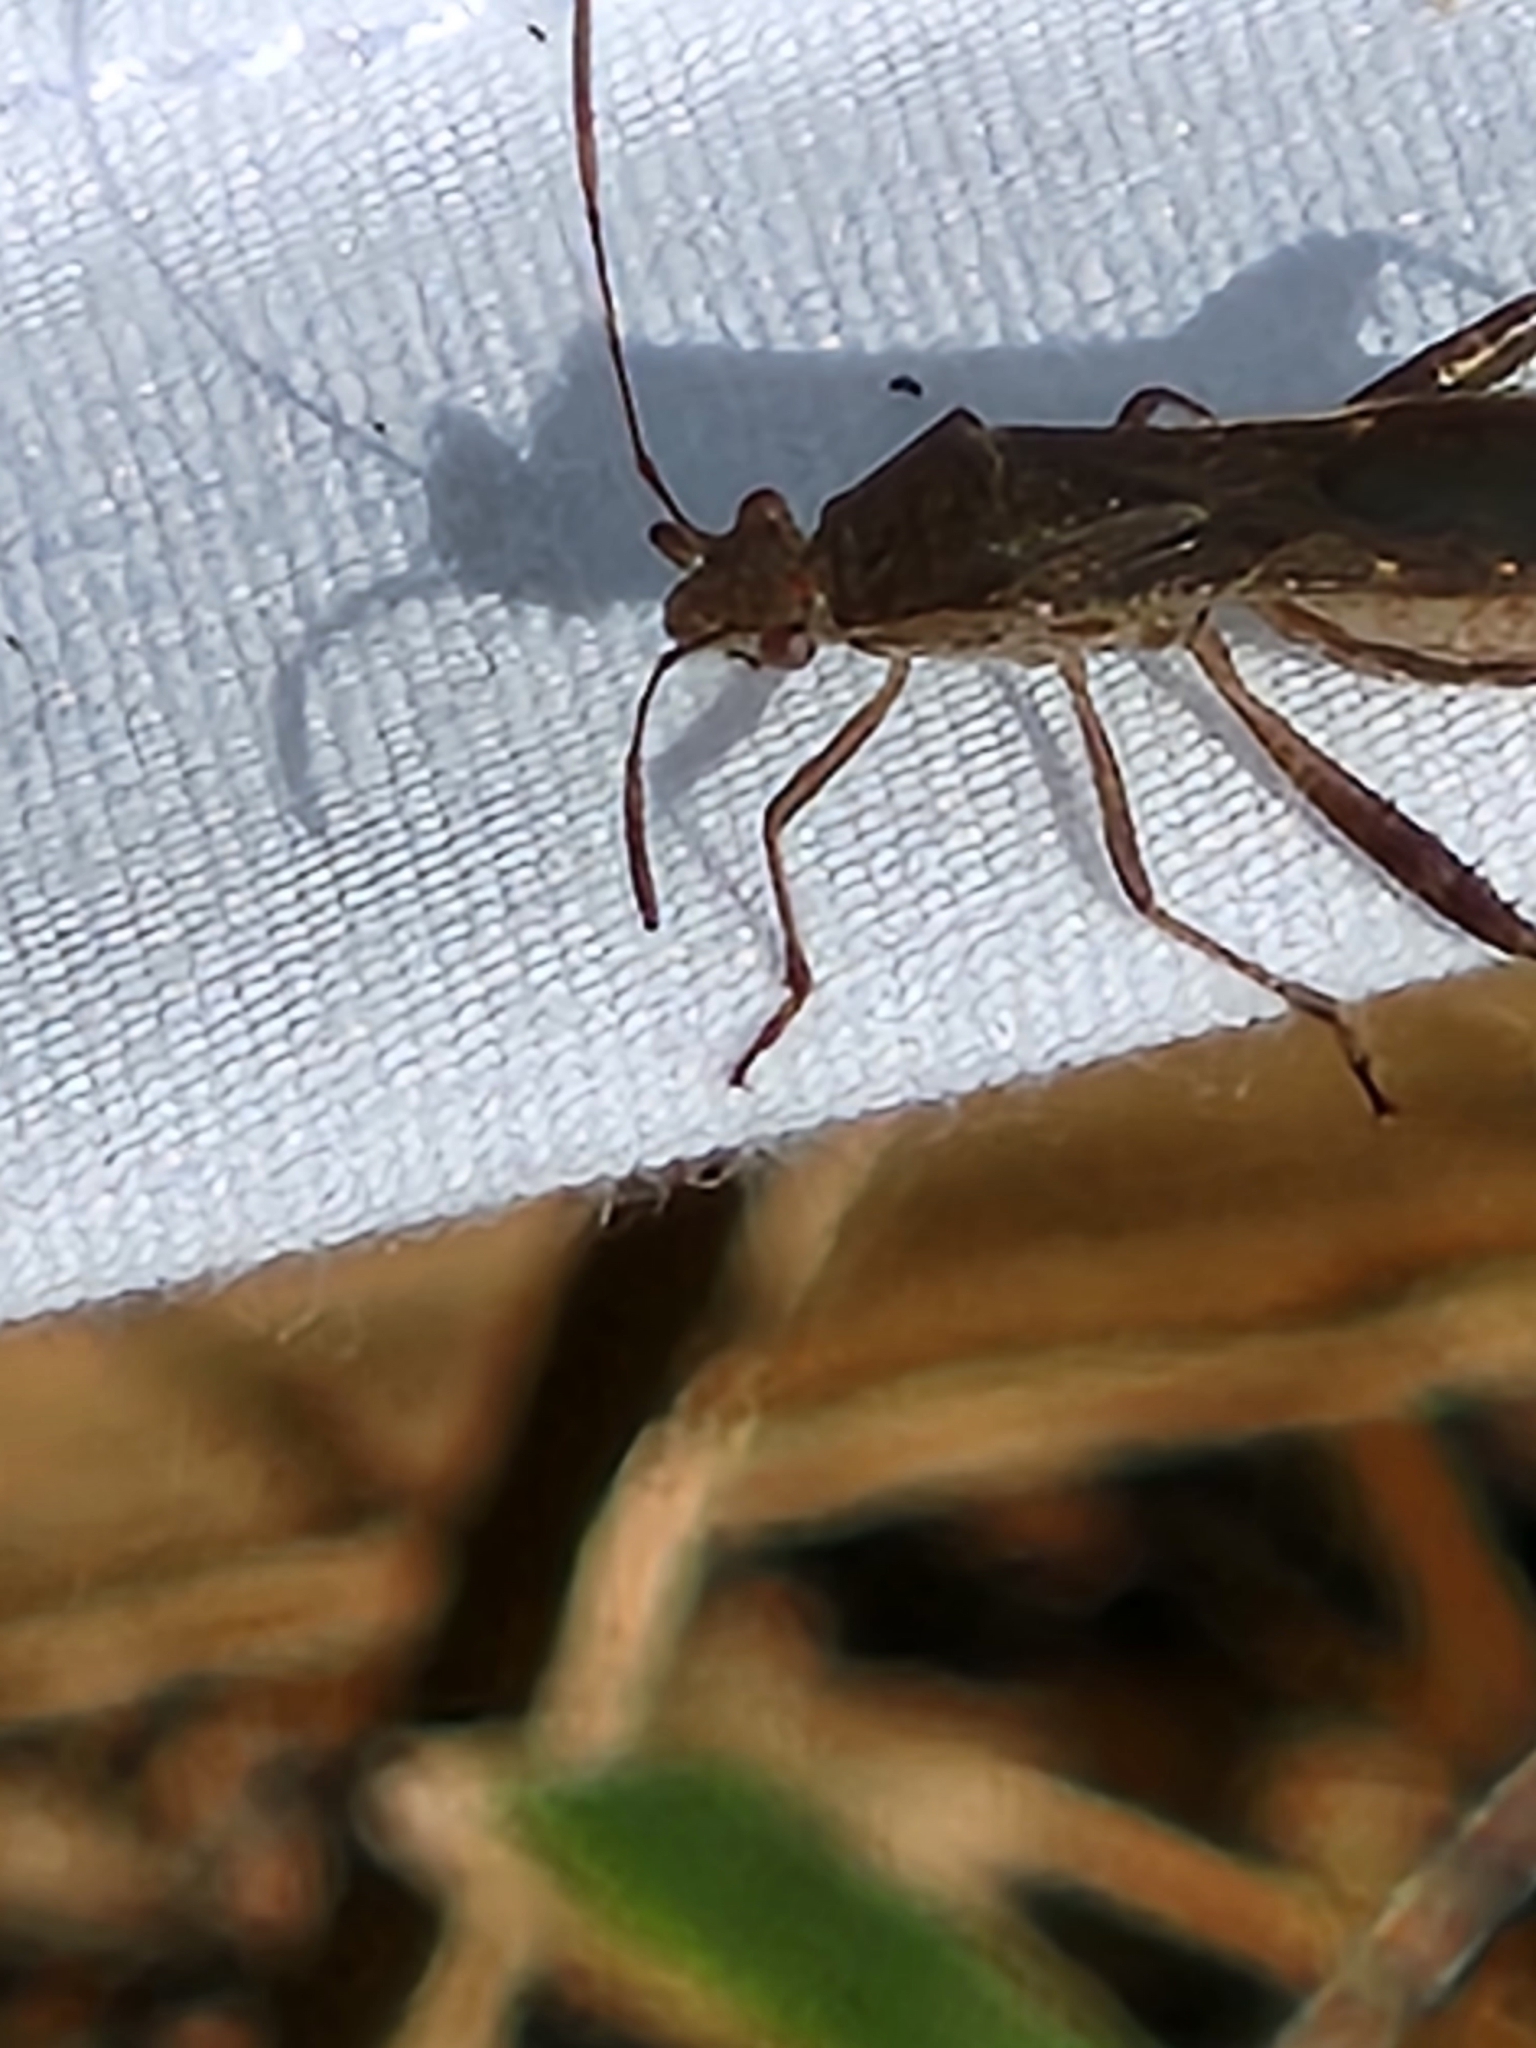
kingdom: Animalia
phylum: Arthropoda
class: Insecta
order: Hemiptera
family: Alydidae
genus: Burtinus
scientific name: Burtinus notatipennis
